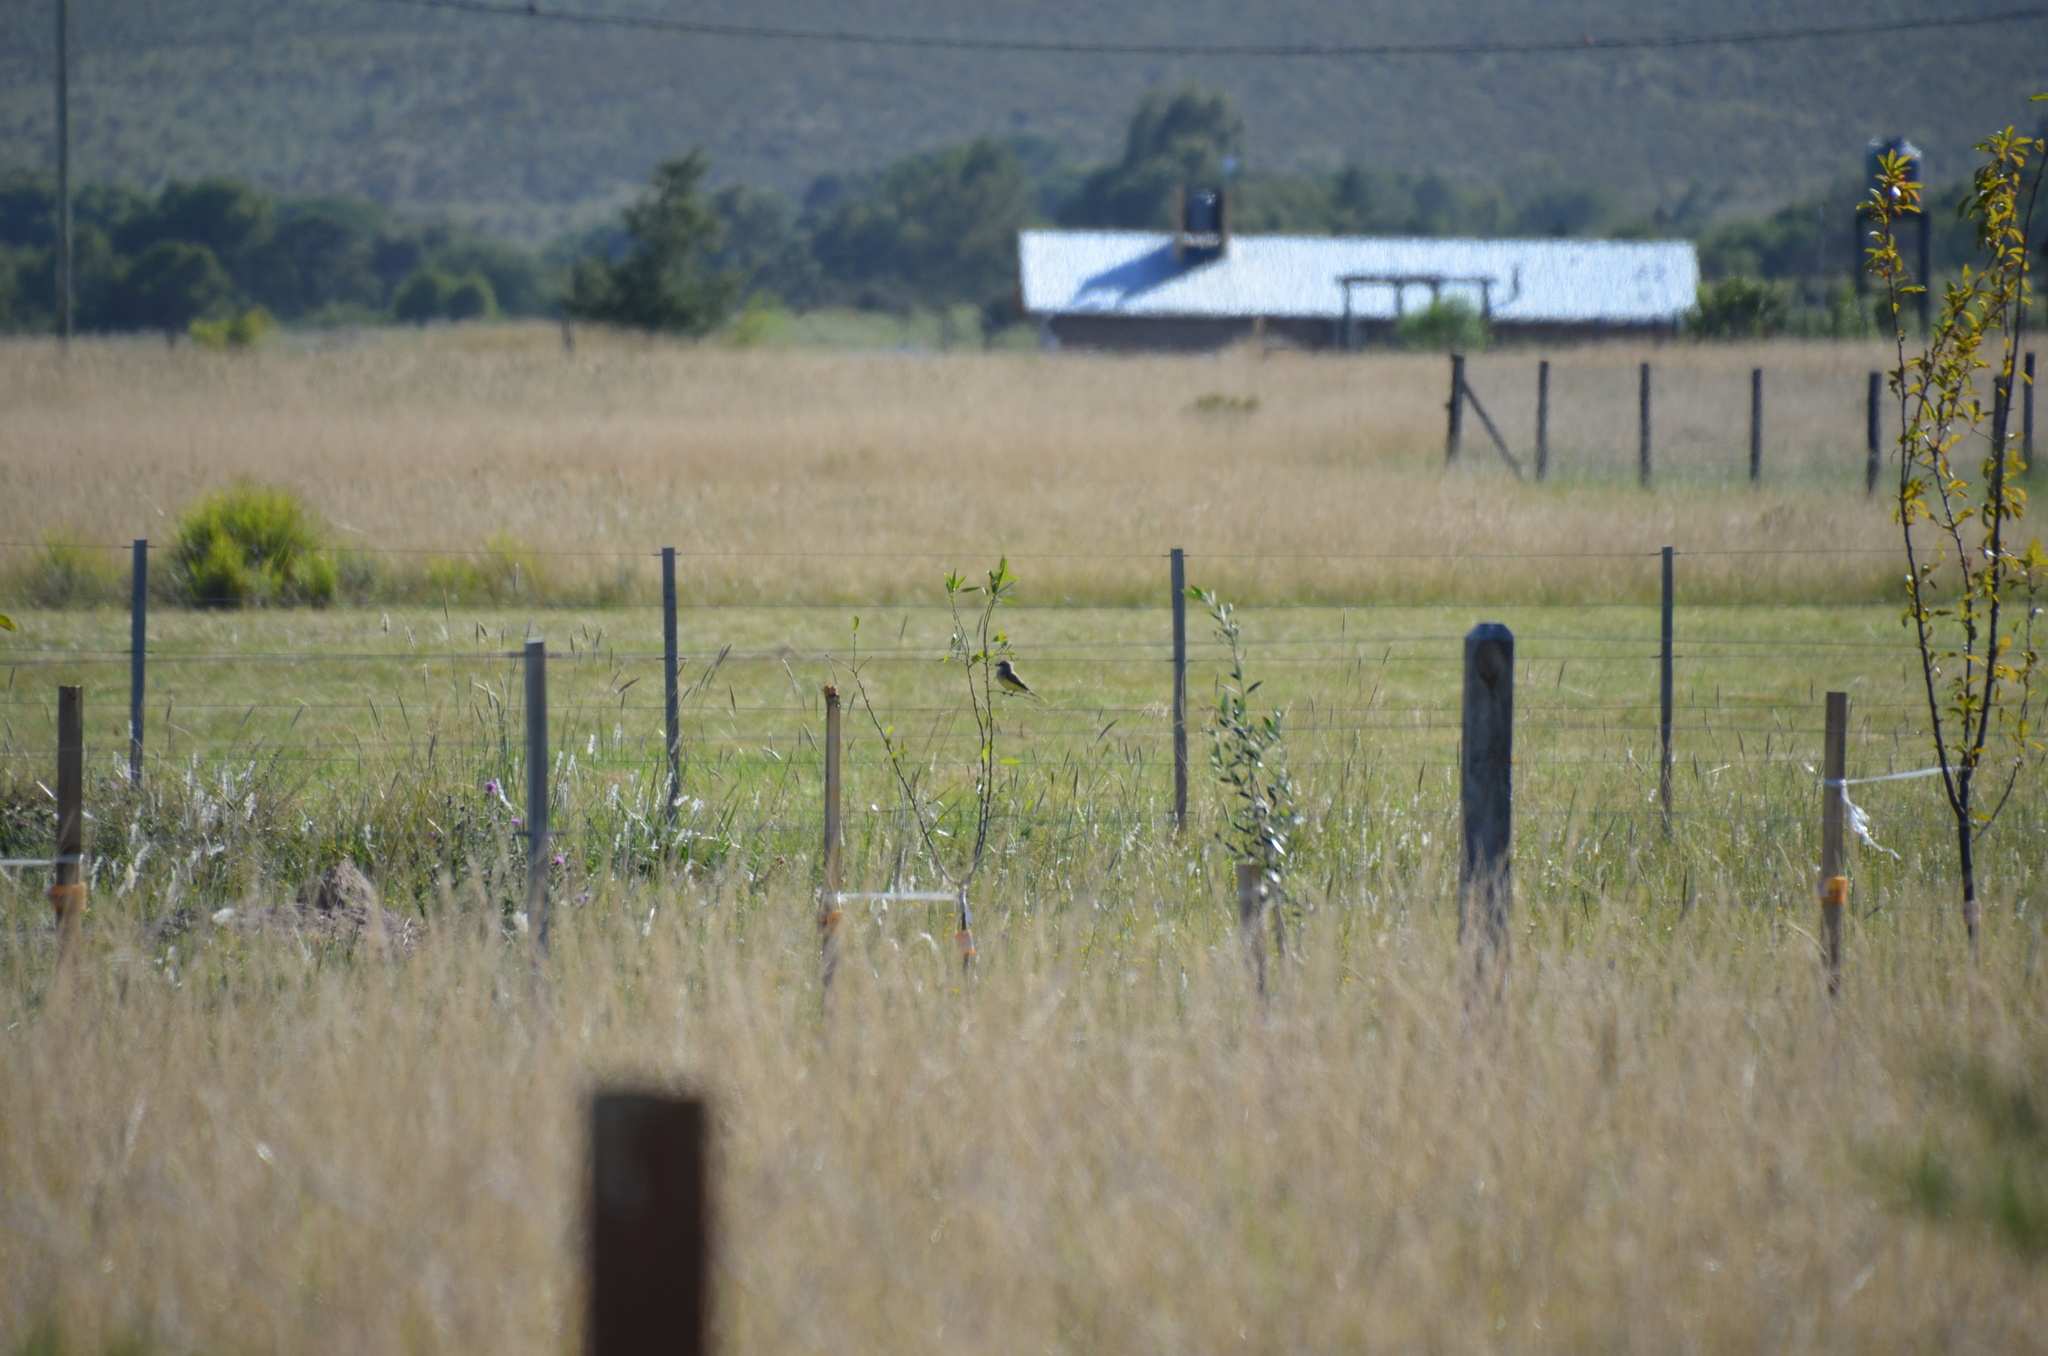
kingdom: Animalia
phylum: Chordata
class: Aves
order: Passeriformes
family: Tyrannidae
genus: Tyrannus
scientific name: Tyrannus melancholicus
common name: Tropical kingbird
